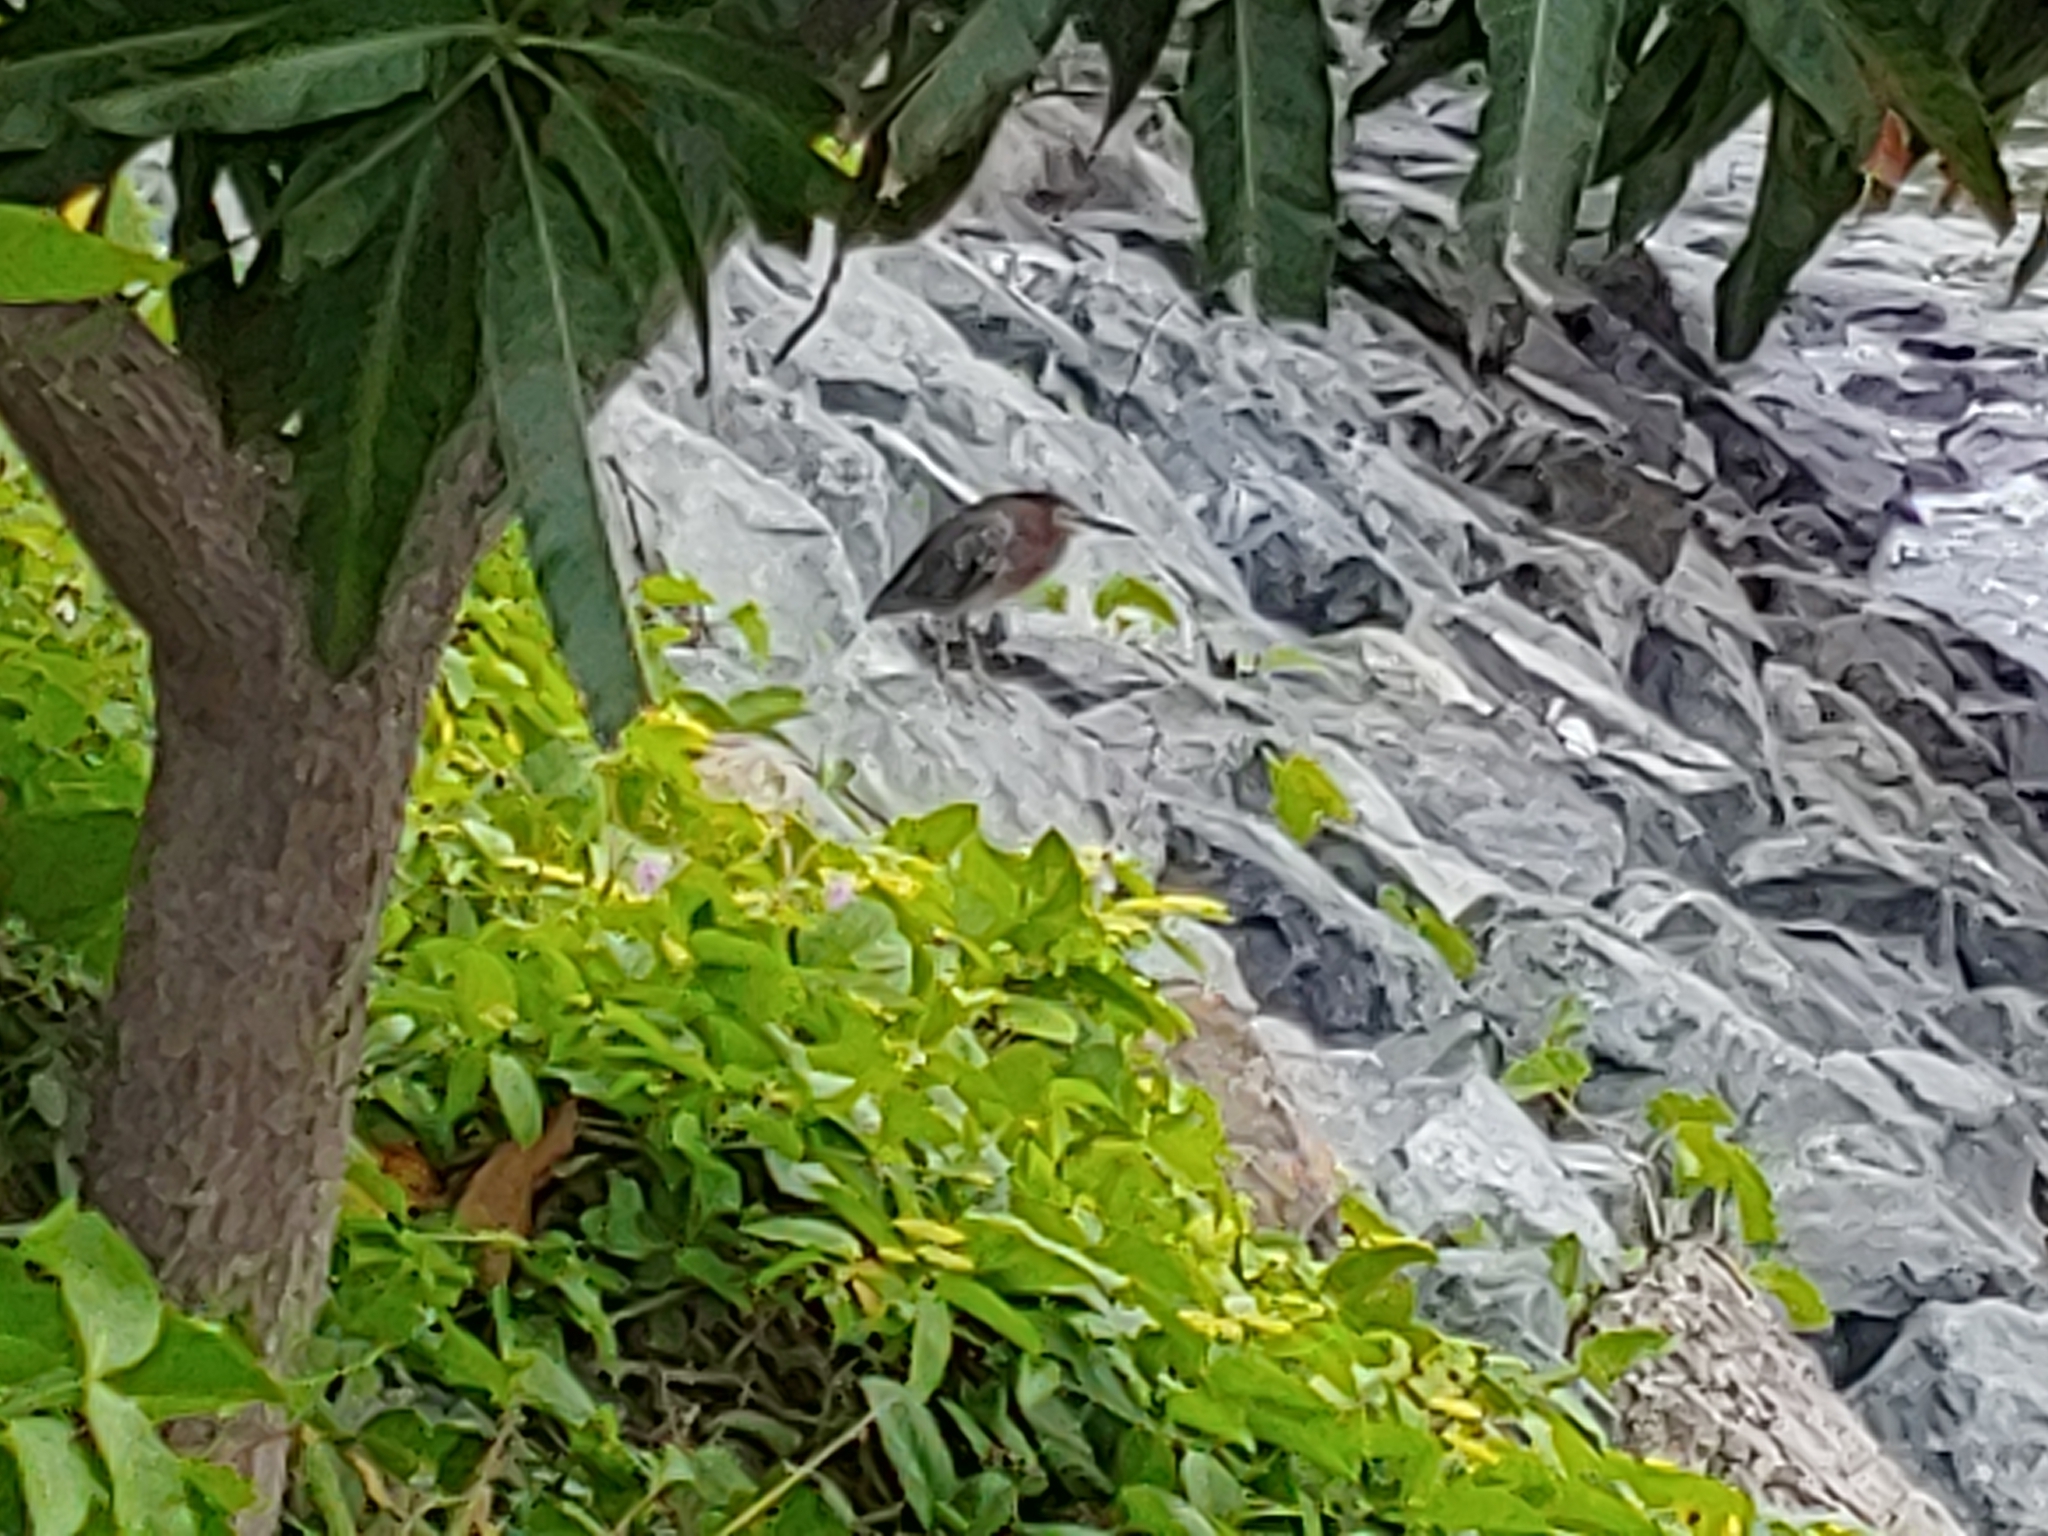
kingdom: Animalia
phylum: Chordata
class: Aves
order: Pelecaniformes
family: Ardeidae
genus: Butorides
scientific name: Butorides virescens
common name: Green heron
